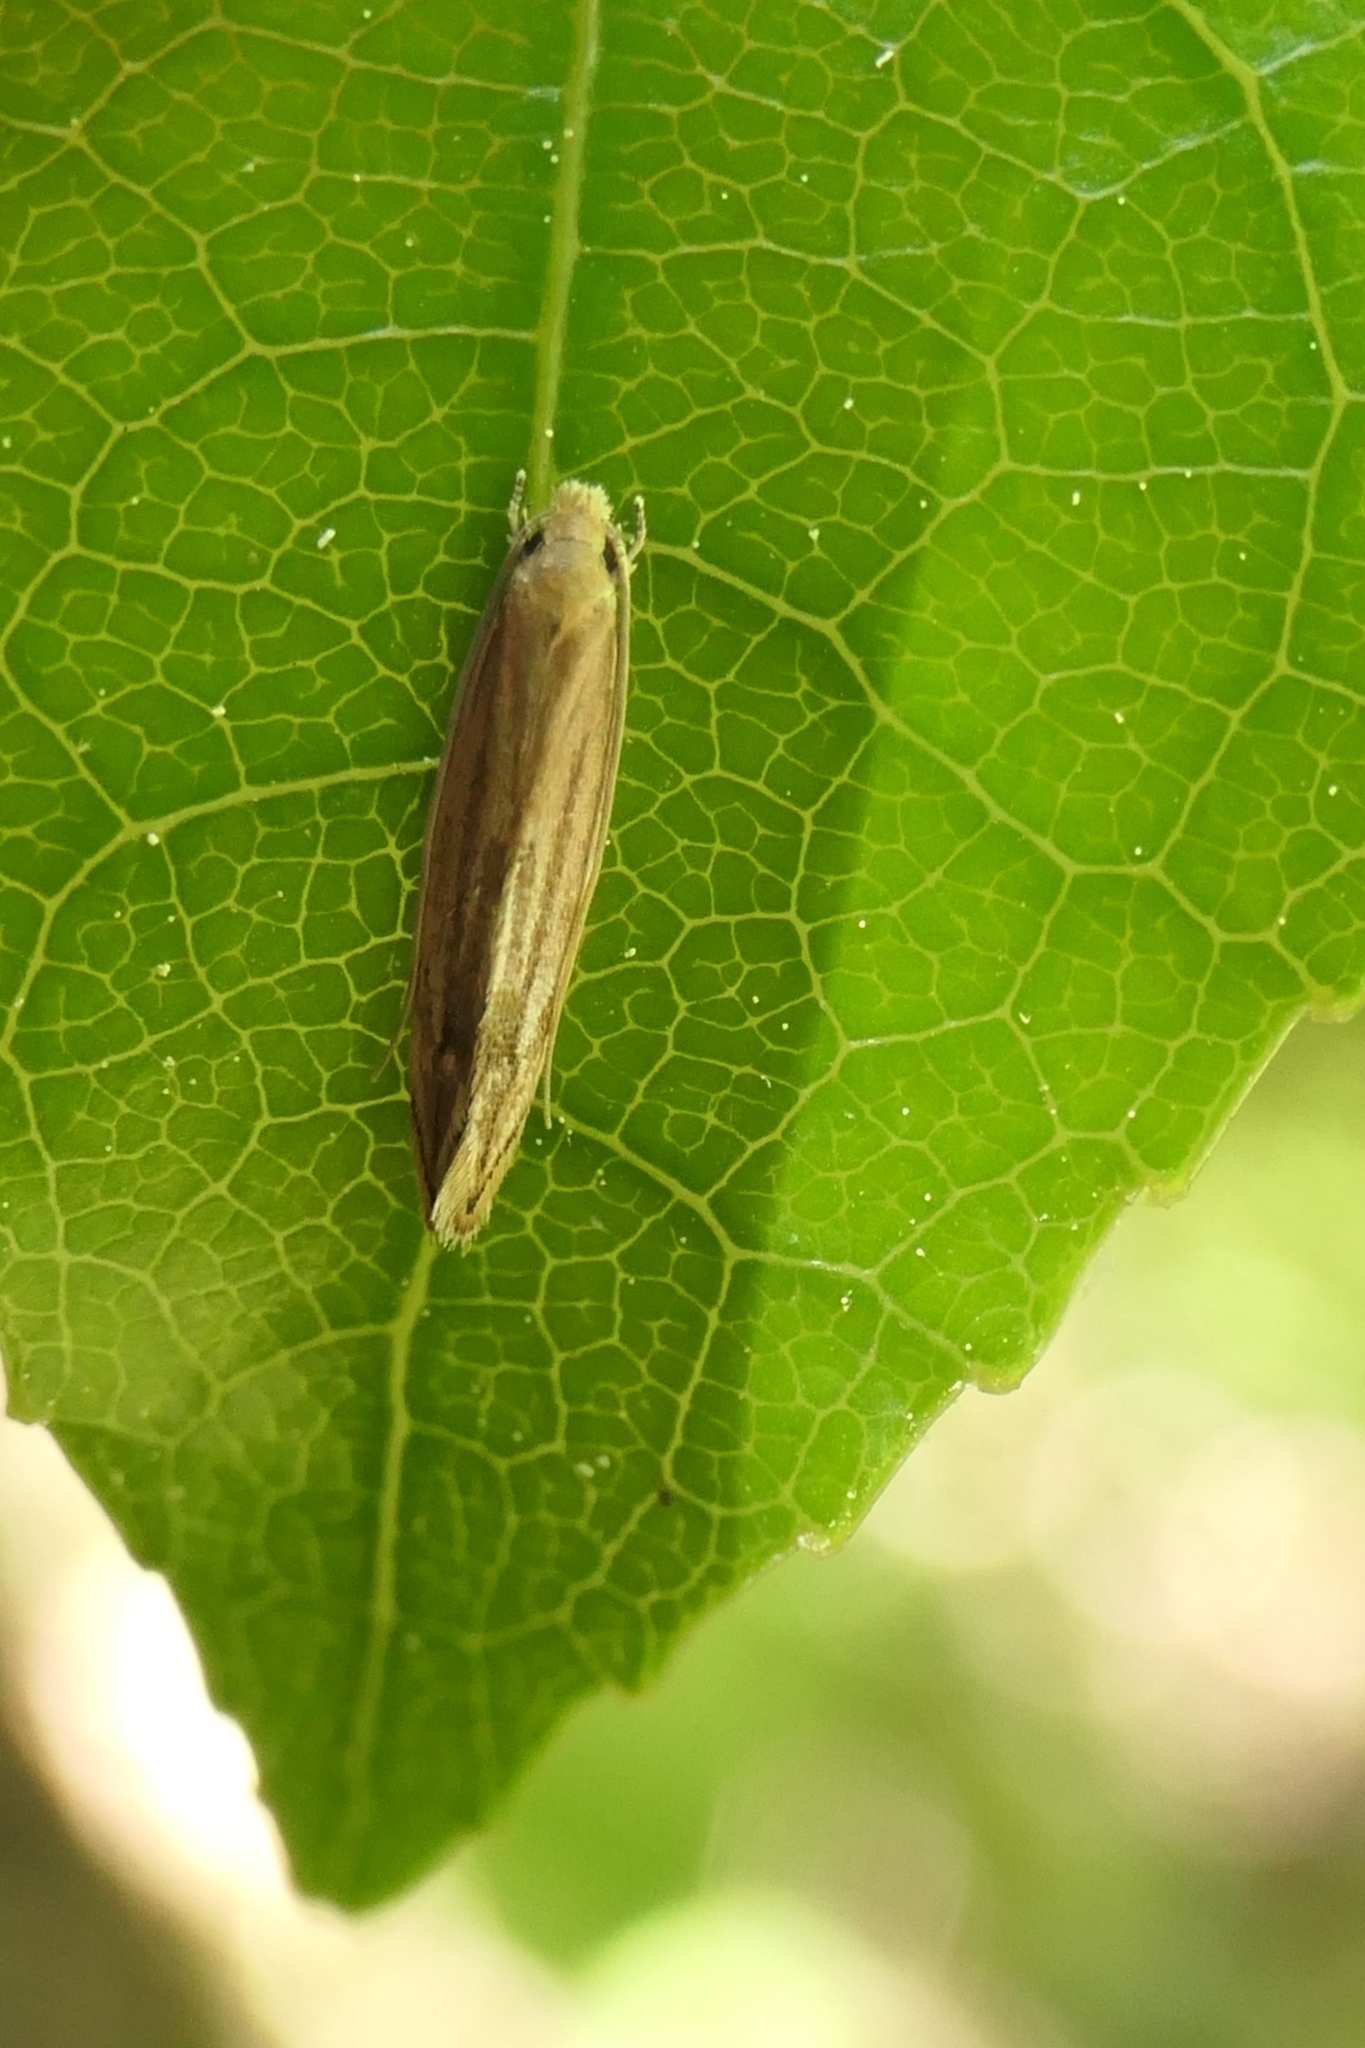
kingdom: Animalia
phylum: Arthropoda
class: Insecta
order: Lepidoptera
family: Tineidae
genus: Amphixystis
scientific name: Amphixystis hapsimacha
